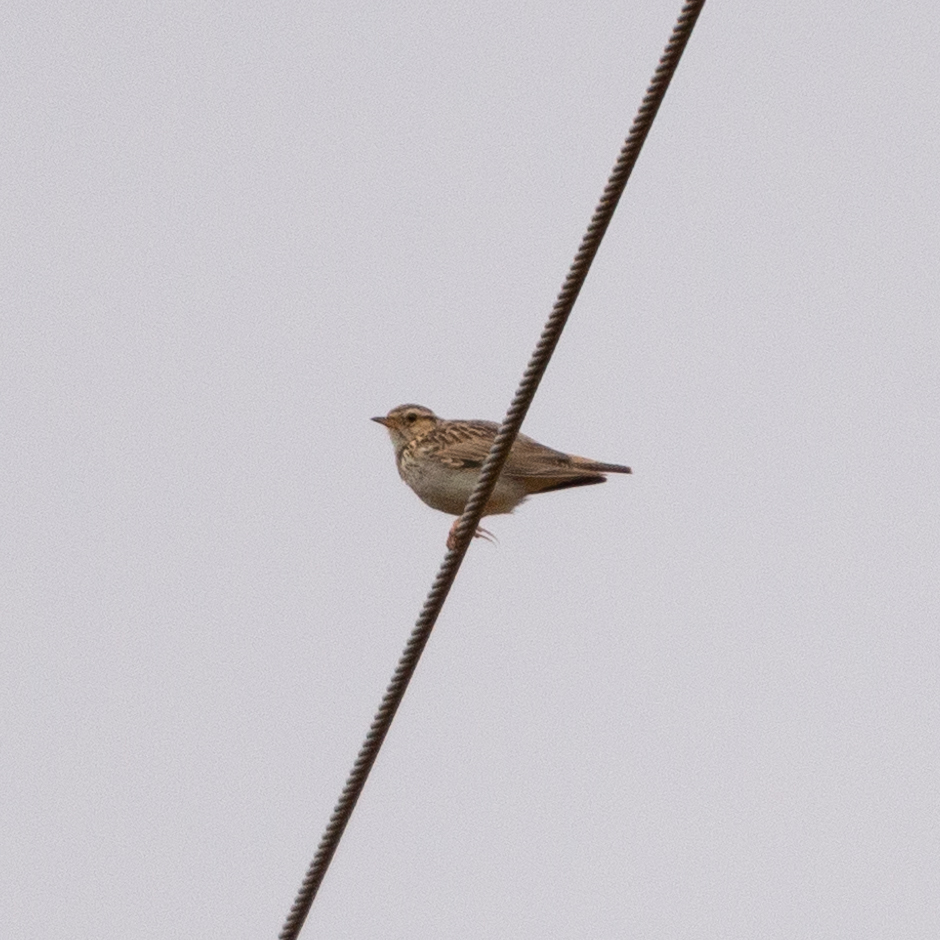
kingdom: Animalia
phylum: Chordata
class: Aves
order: Passeriformes
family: Alaudidae
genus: Lullula
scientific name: Lullula arborea
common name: Woodlark
